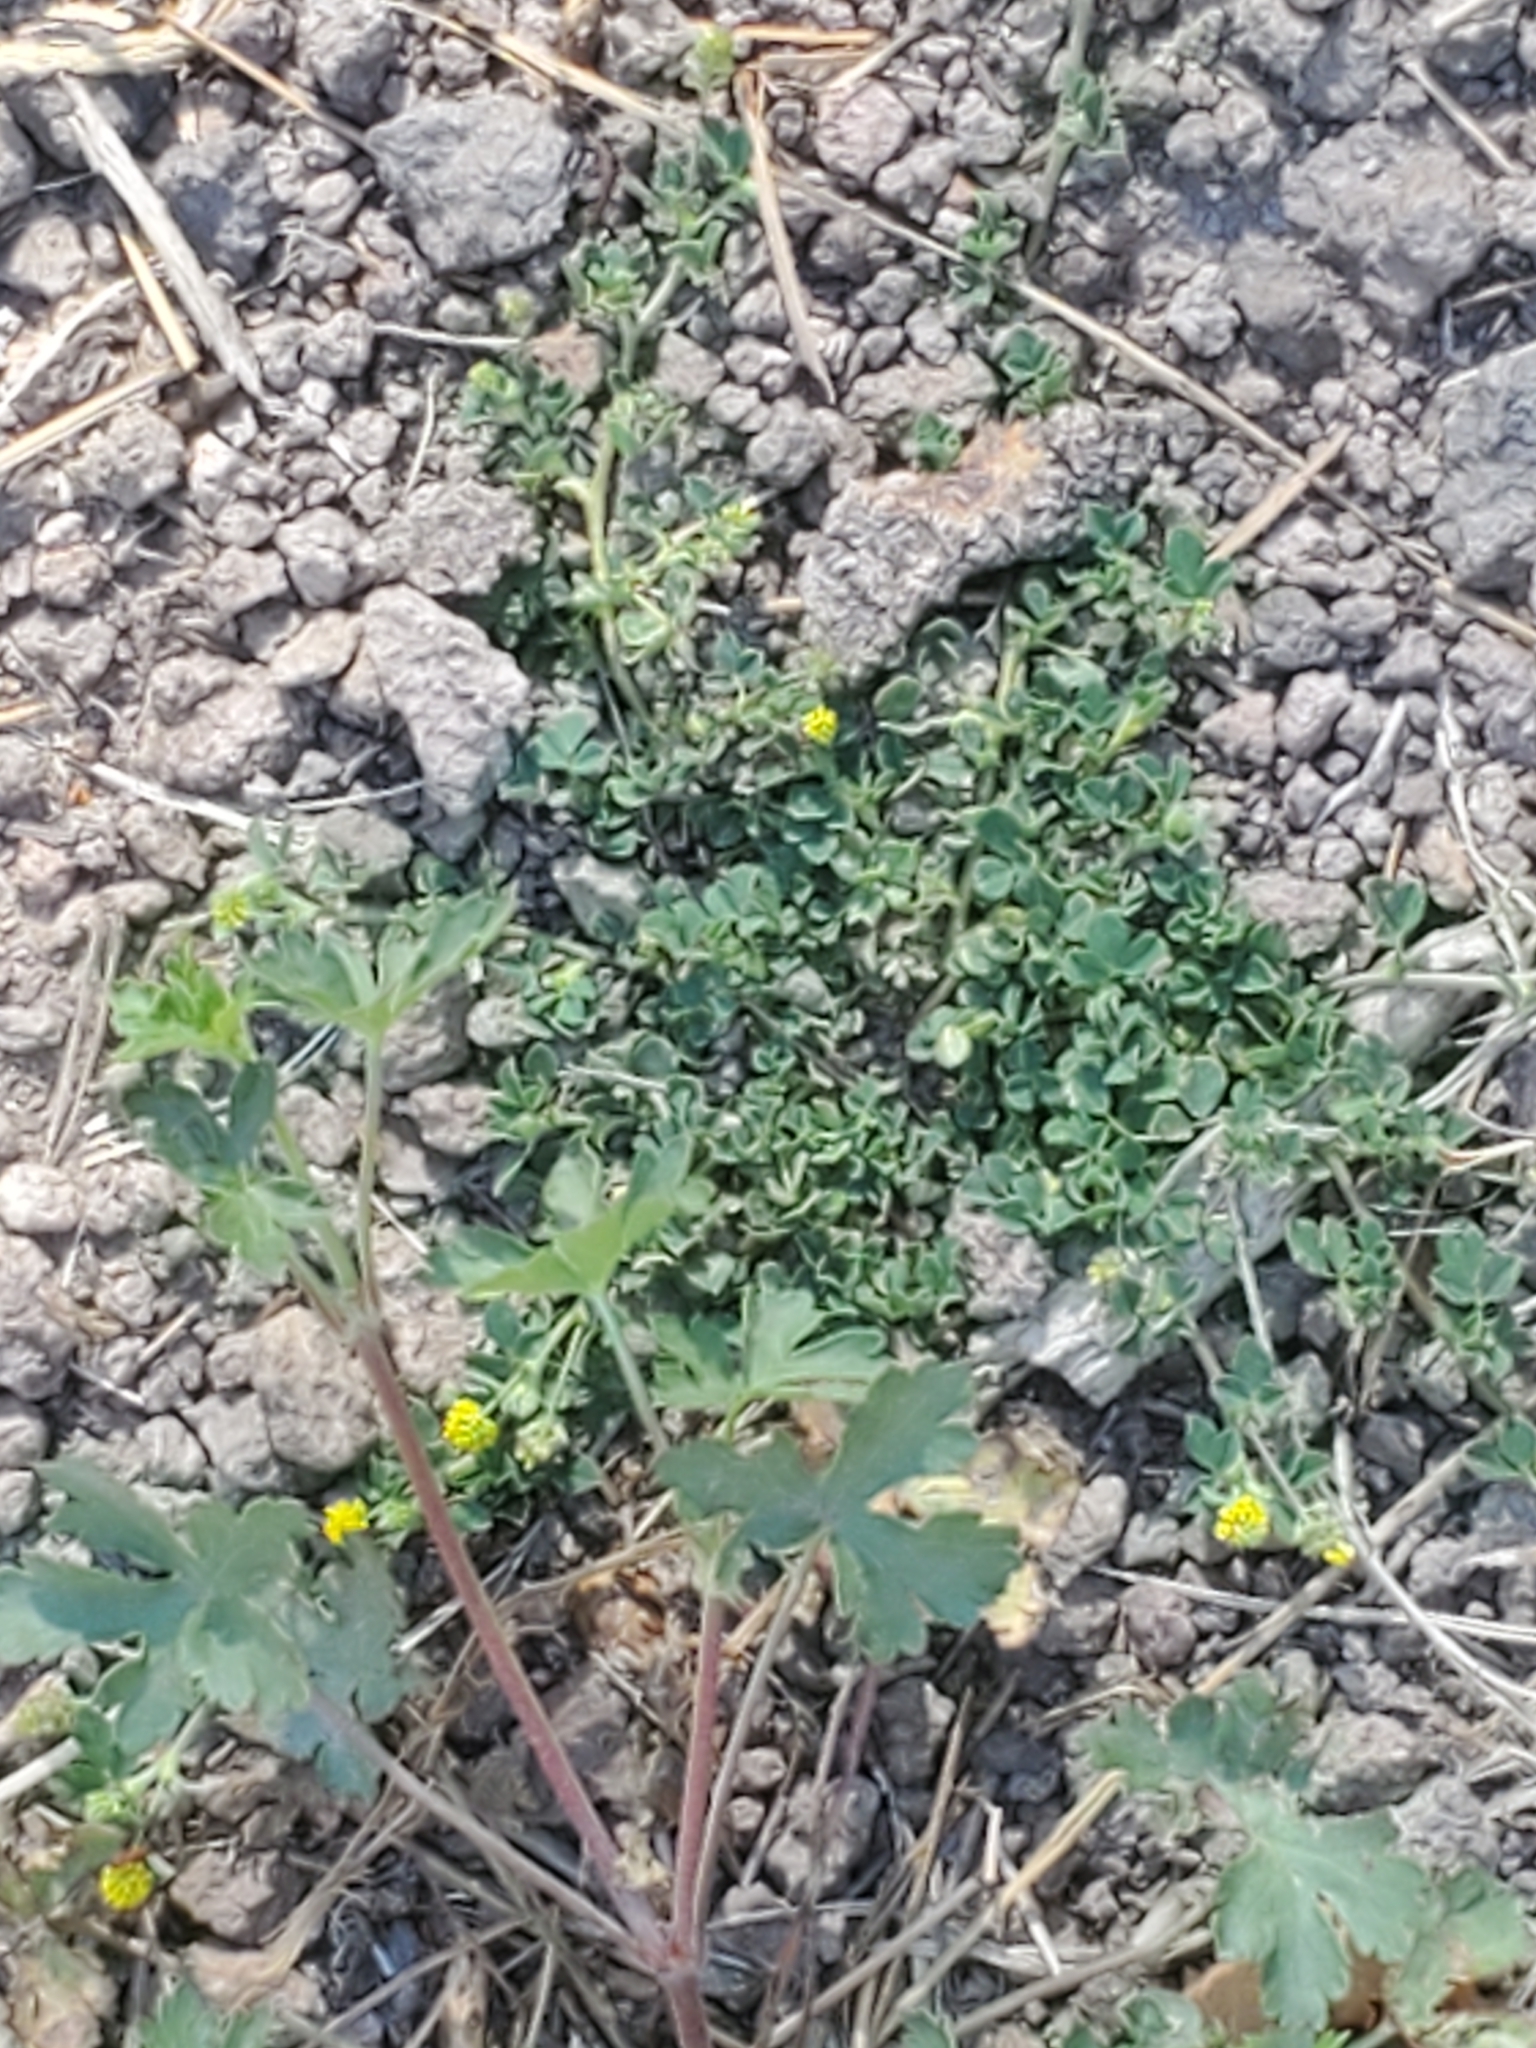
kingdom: Plantae
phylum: Tracheophyta
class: Magnoliopsida
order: Fabales
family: Fabaceae
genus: Medicago
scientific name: Medicago lupulina
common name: Black medick
